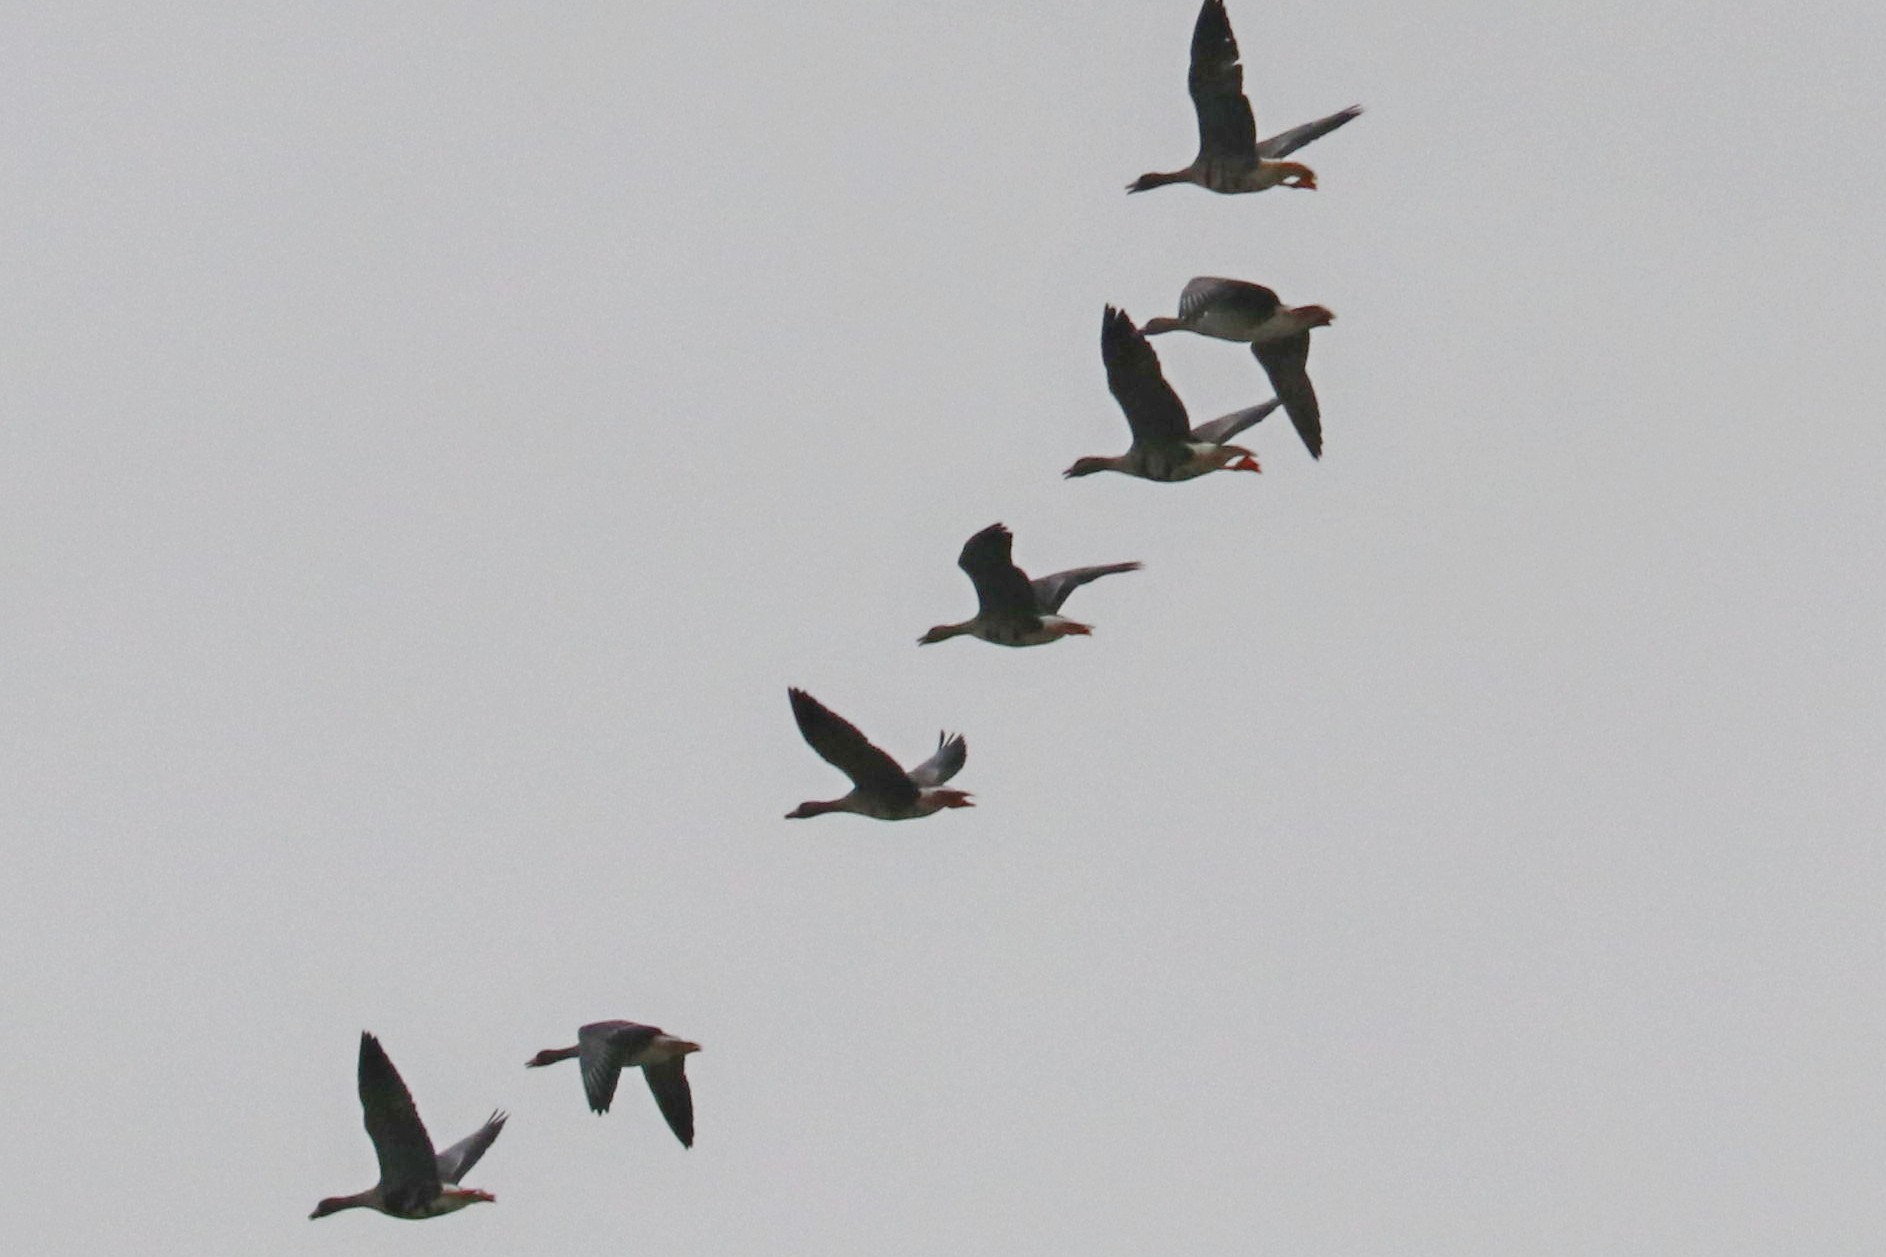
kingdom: Animalia
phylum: Chordata
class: Aves
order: Anseriformes
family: Anatidae
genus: Anser
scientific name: Anser albifrons
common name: Greater white-fronted goose
